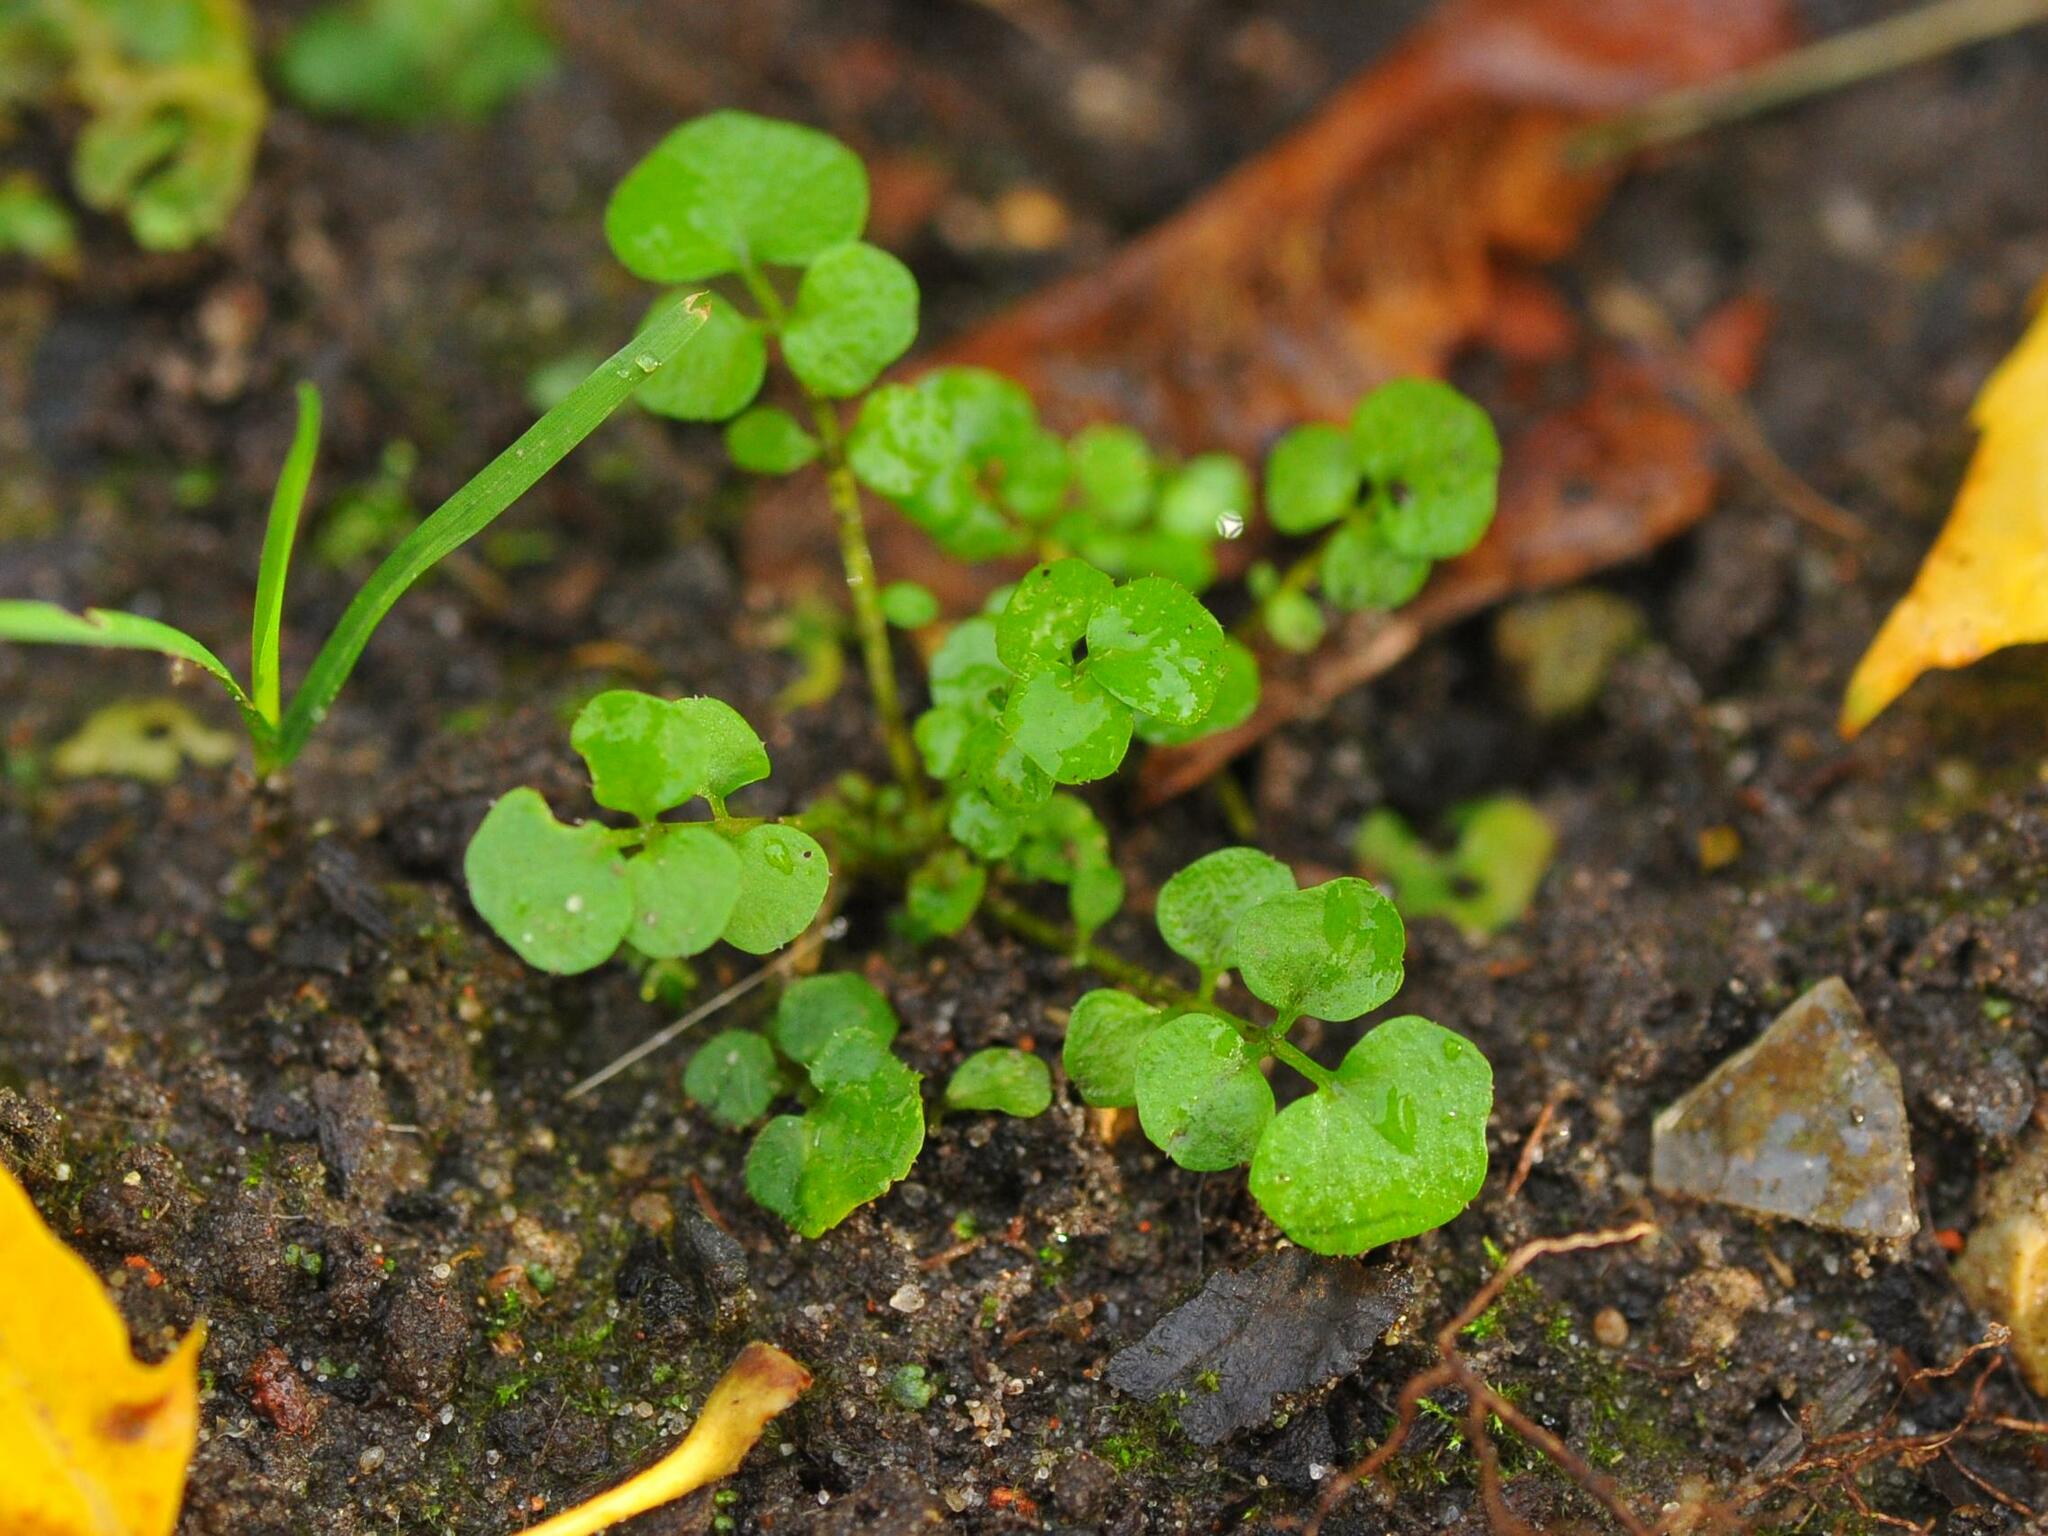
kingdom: Plantae
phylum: Tracheophyta
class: Magnoliopsida
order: Brassicales
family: Brassicaceae
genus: Cardamine
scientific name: Cardamine hirsuta
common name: Hairy bittercress
